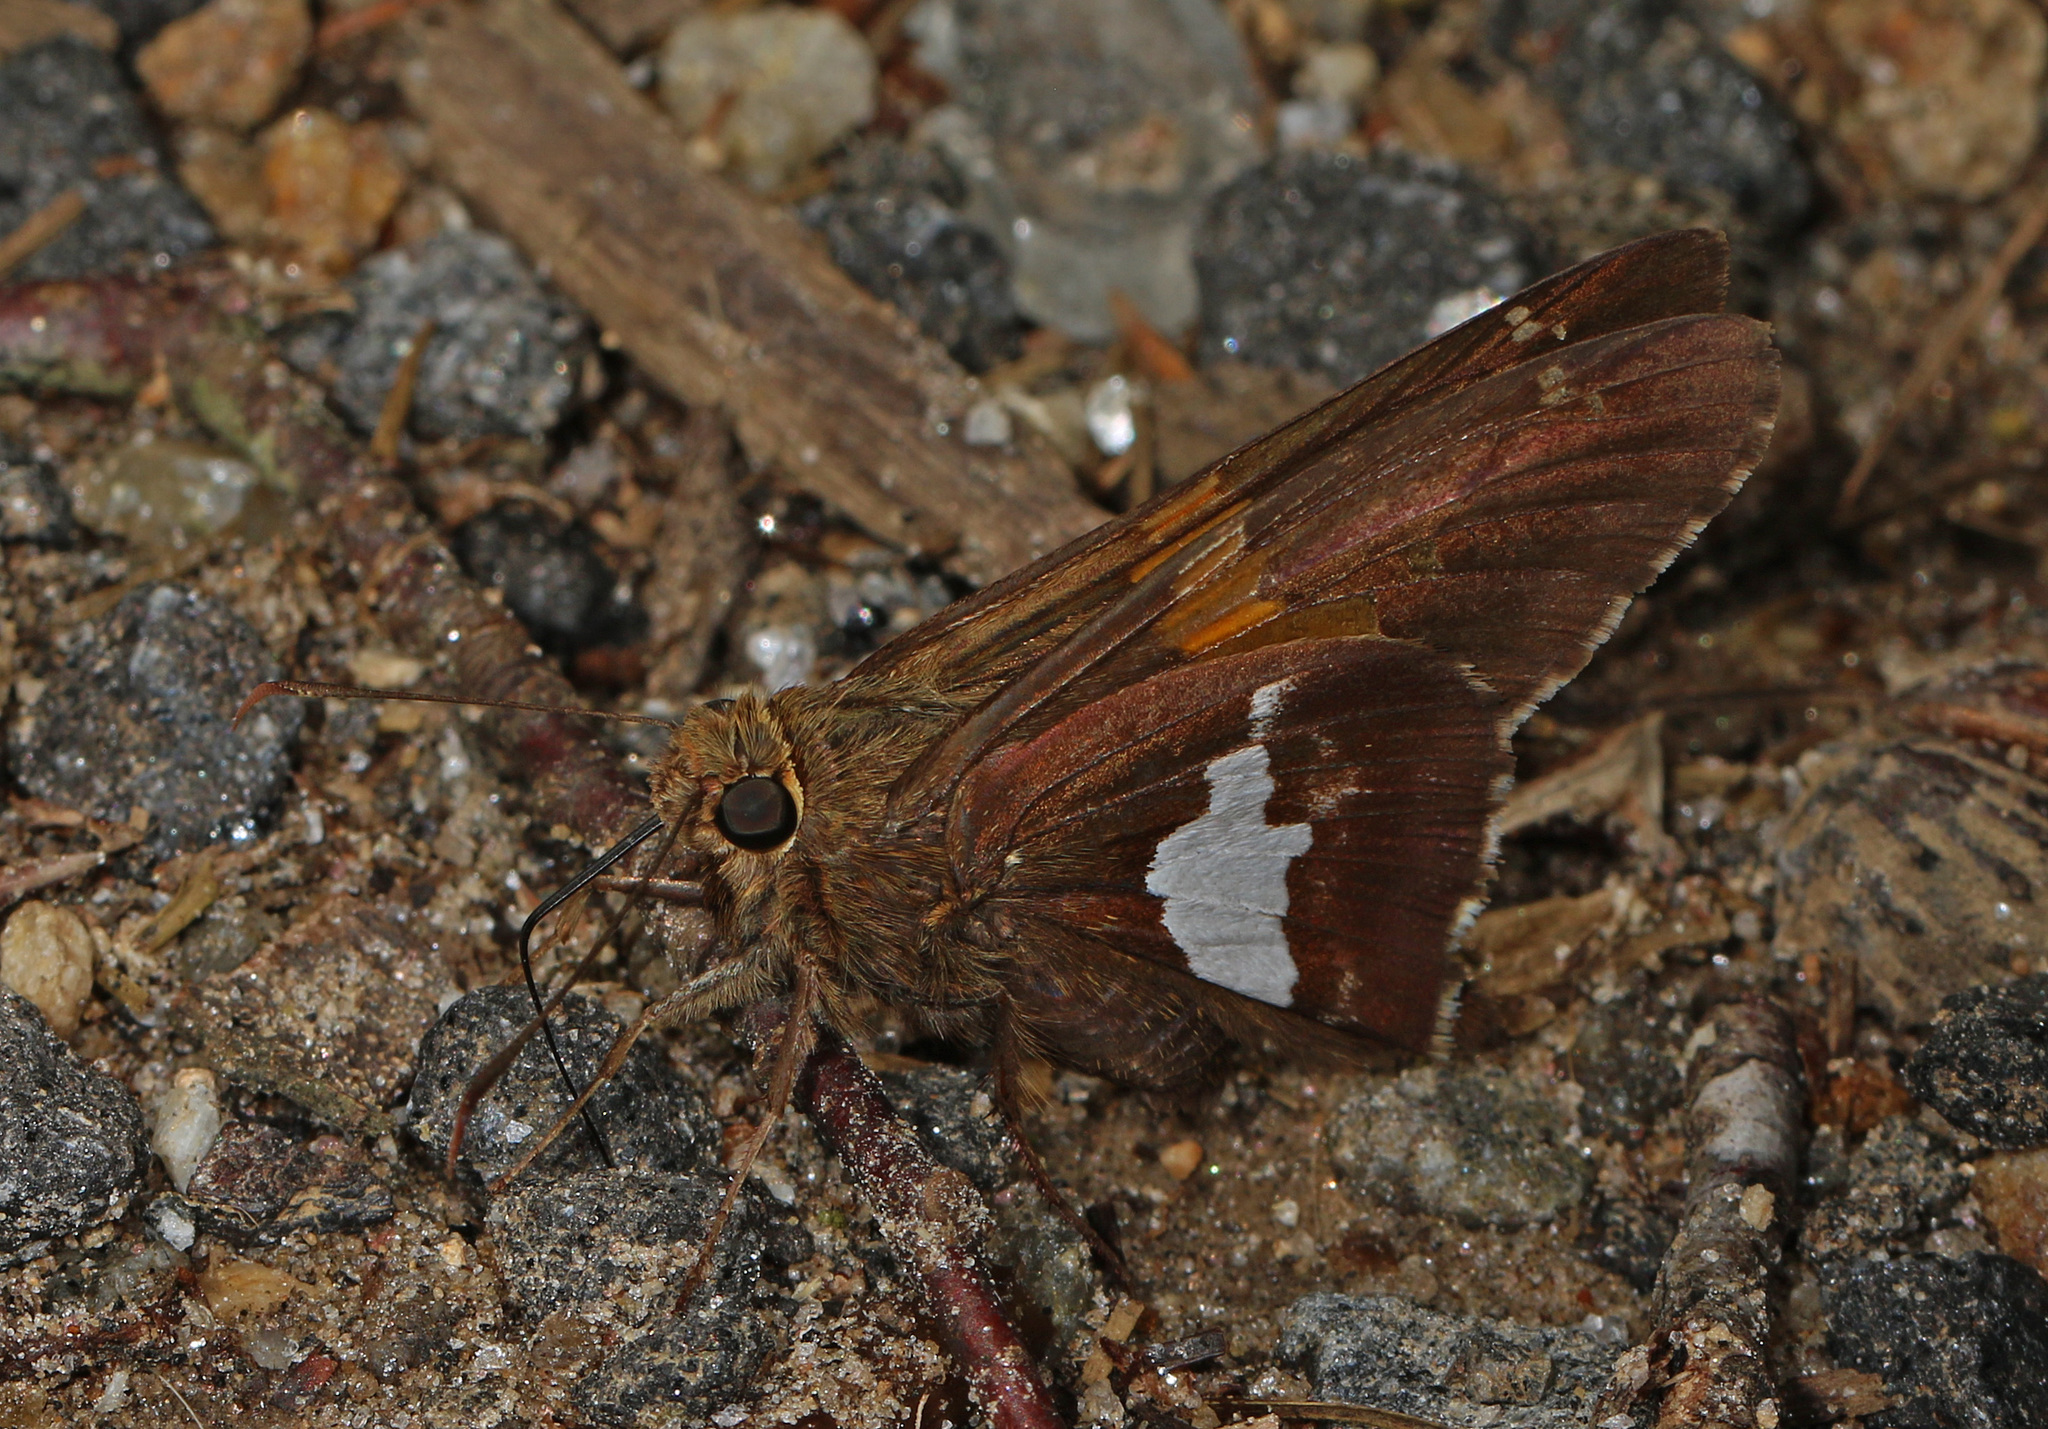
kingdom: Animalia
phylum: Arthropoda
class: Insecta
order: Lepidoptera
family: Hesperiidae
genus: Epargyreus
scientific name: Epargyreus clarus
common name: Silver-spotted skipper
